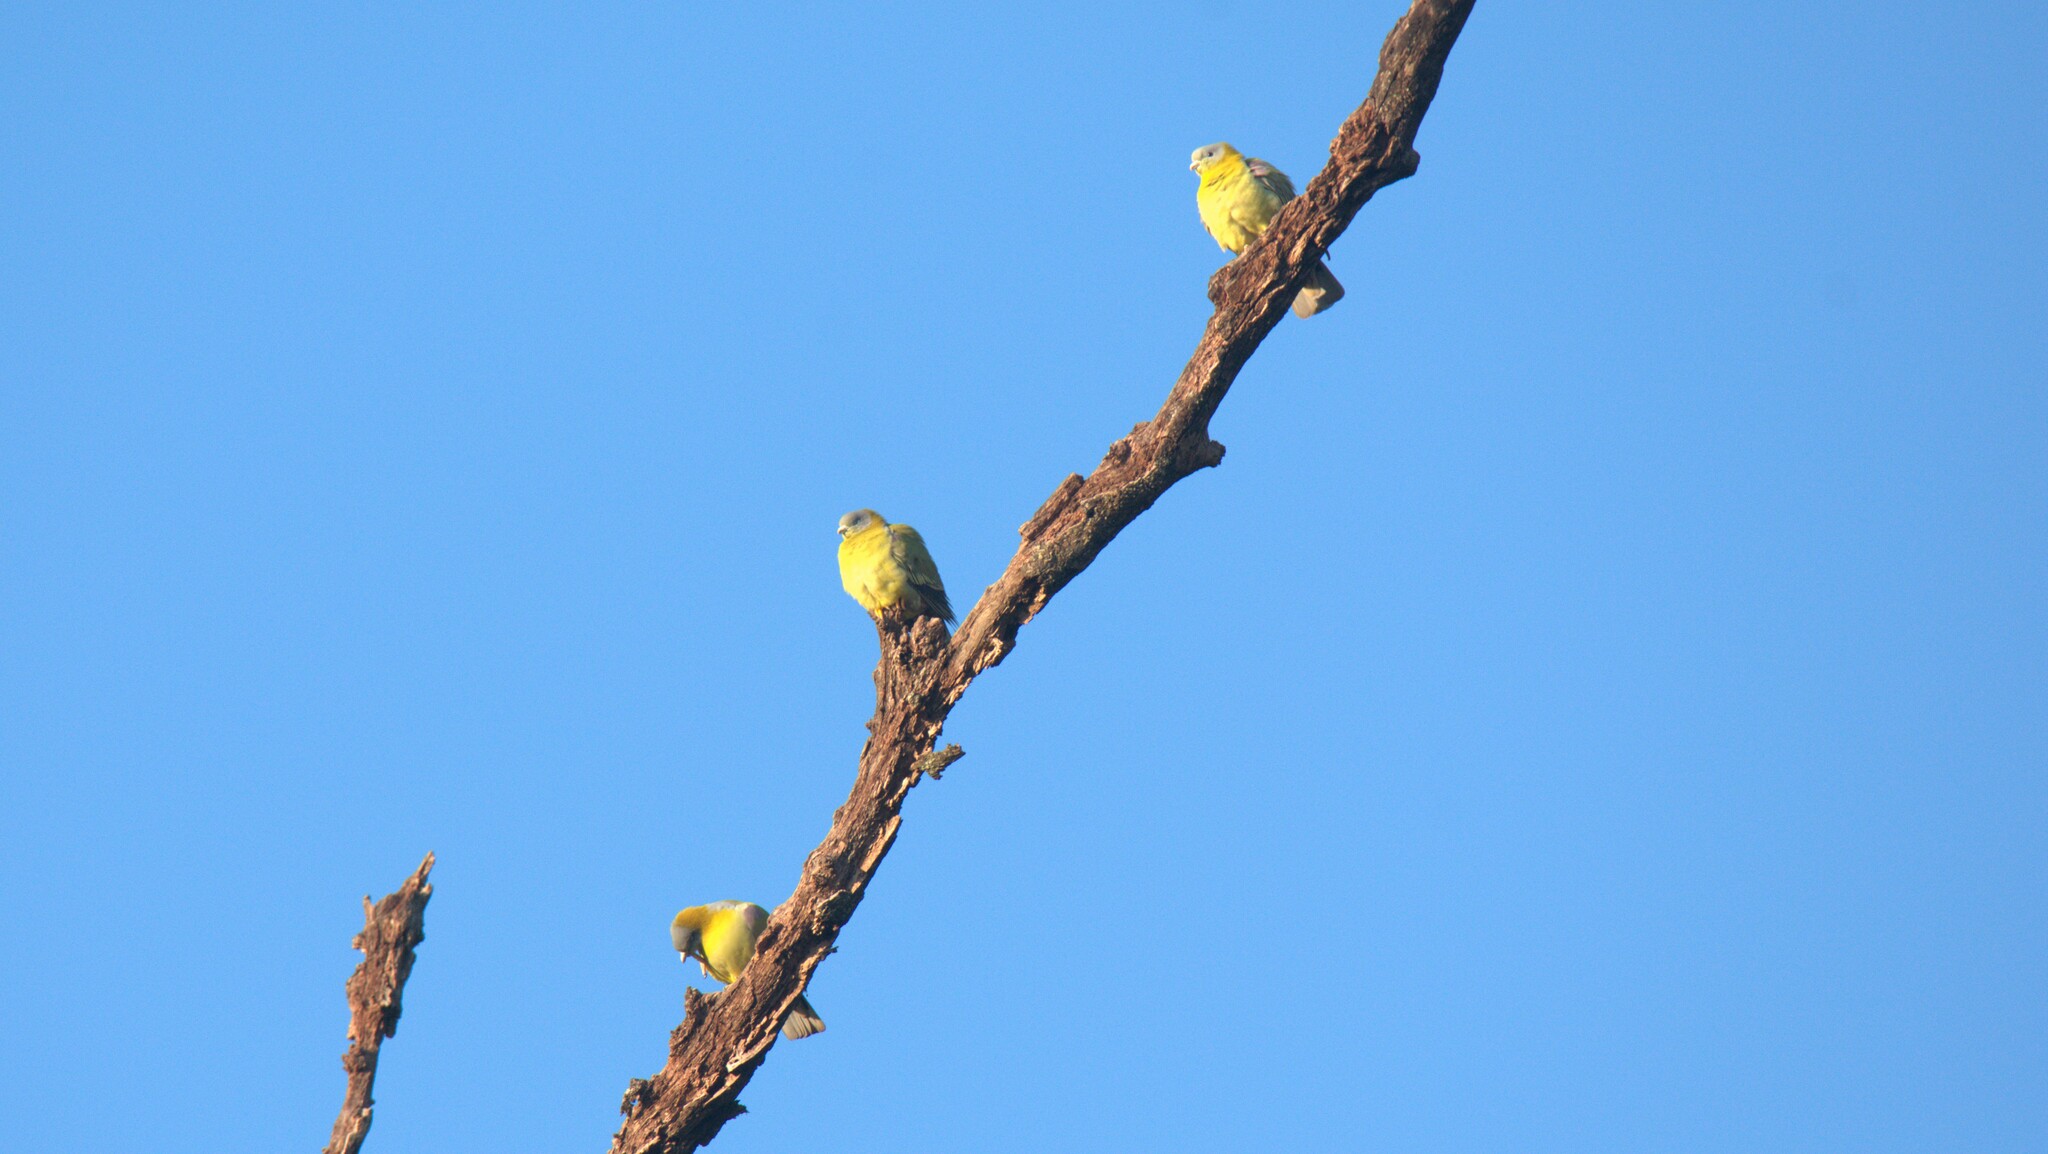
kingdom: Animalia
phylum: Chordata
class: Aves
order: Columbiformes
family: Columbidae
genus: Treron
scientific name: Treron phoenicopterus
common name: Yellow-footed green pigeon
